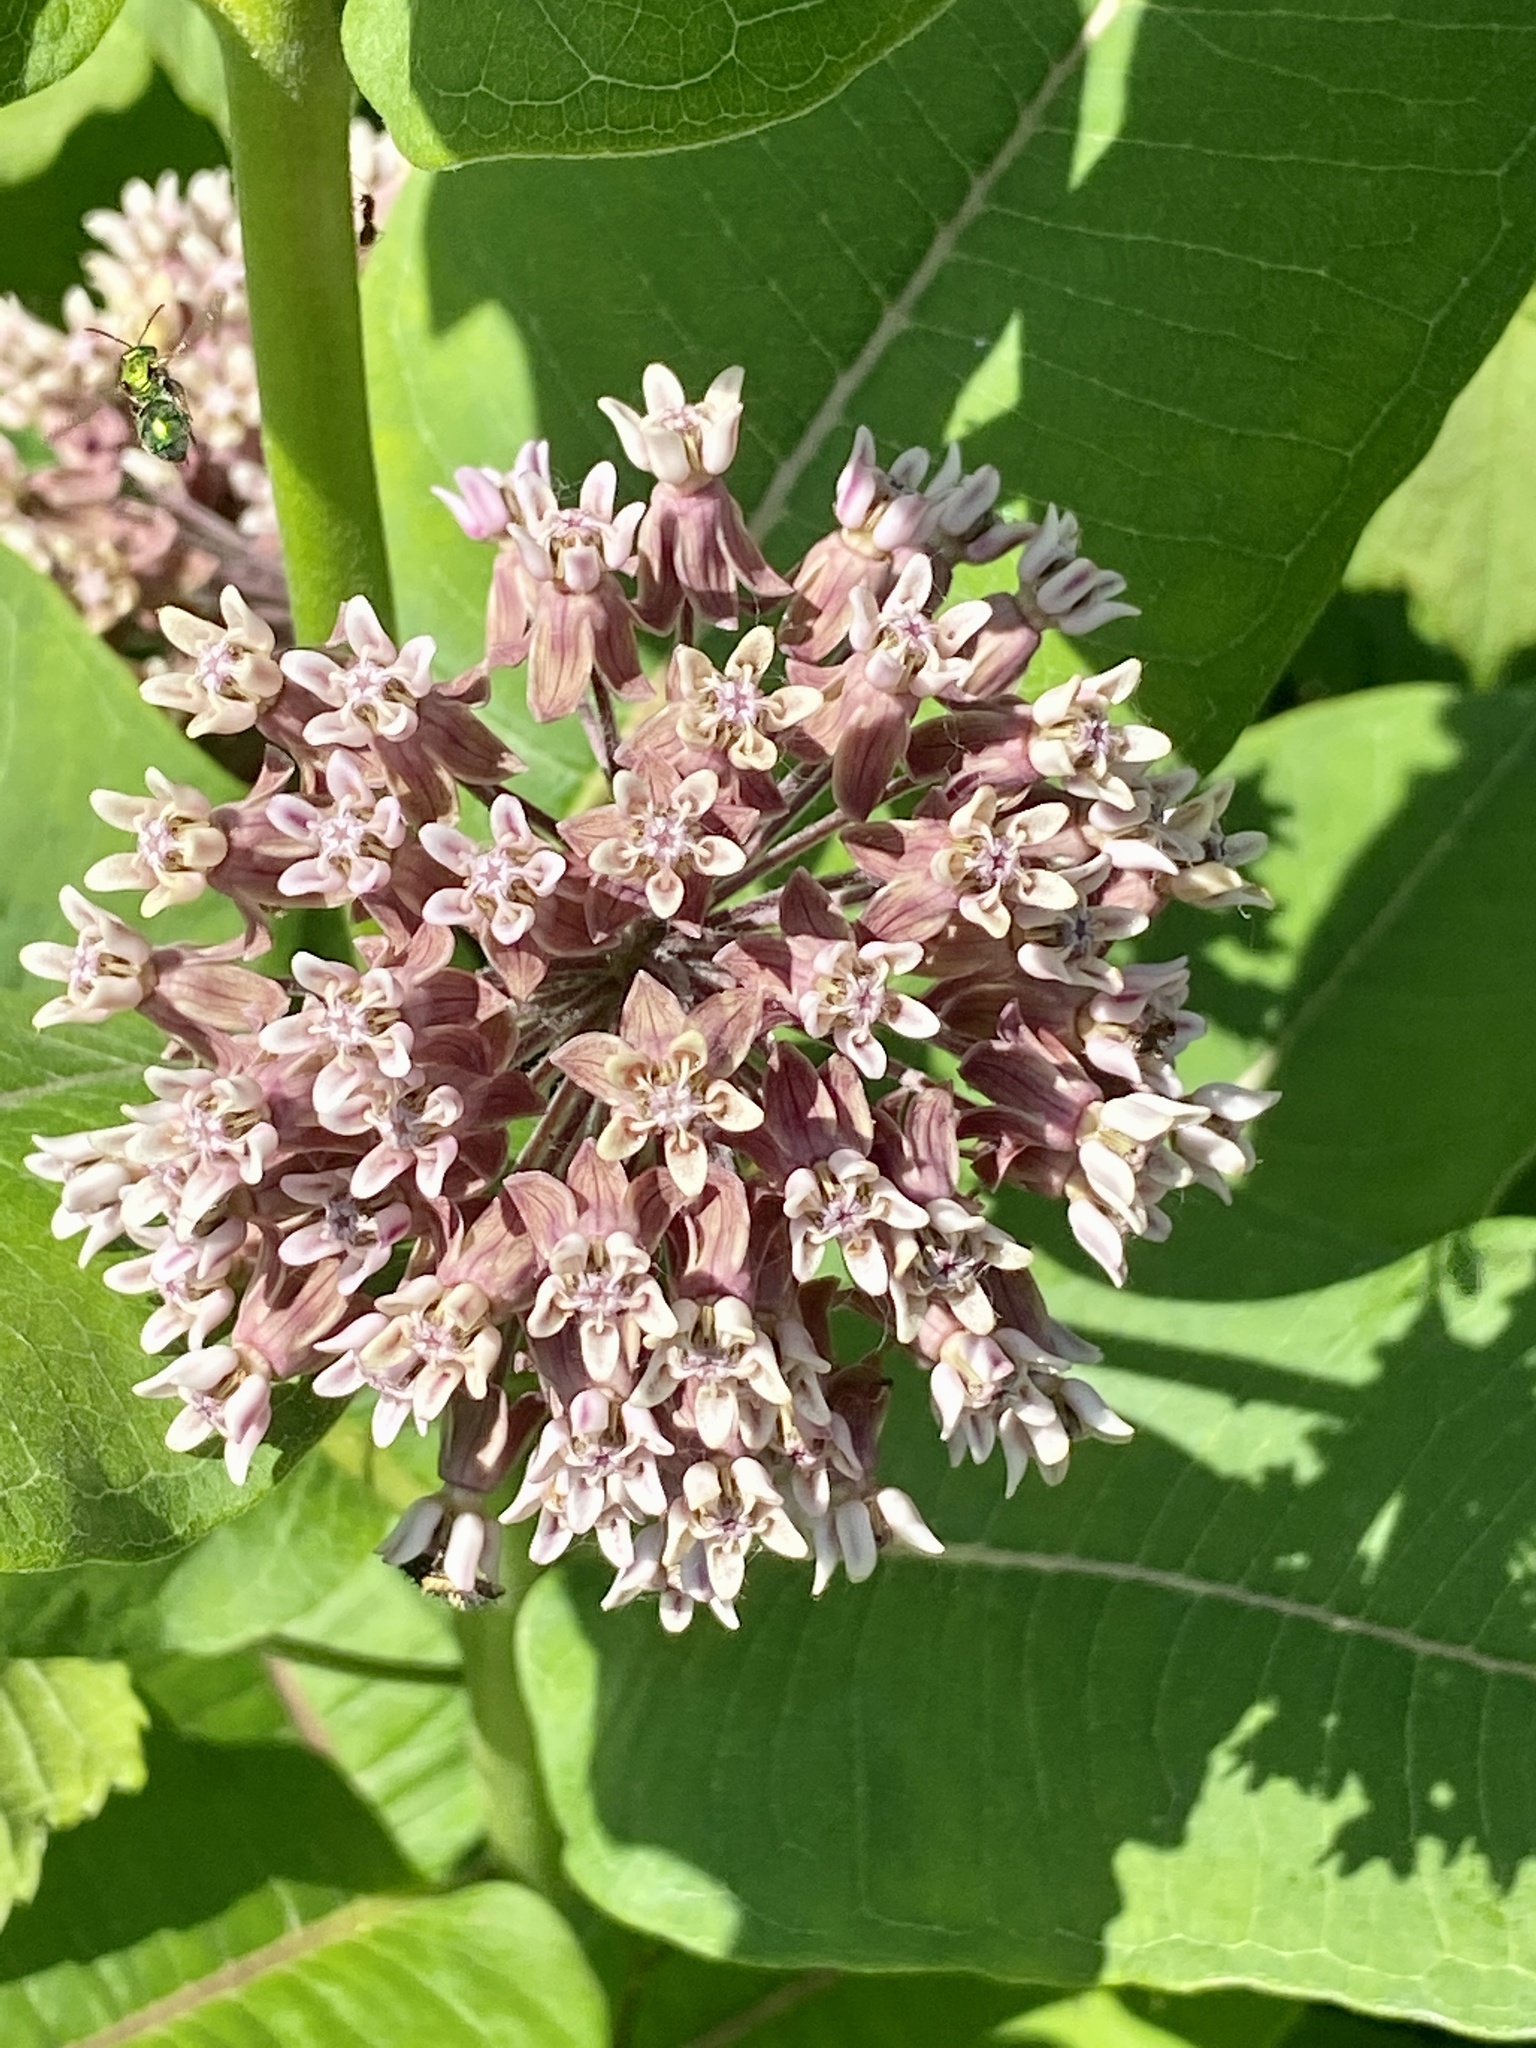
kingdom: Plantae
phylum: Tracheophyta
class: Magnoliopsida
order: Gentianales
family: Apocynaceae
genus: Asclepias
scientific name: Asclepias syriaca
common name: Common milkweed
